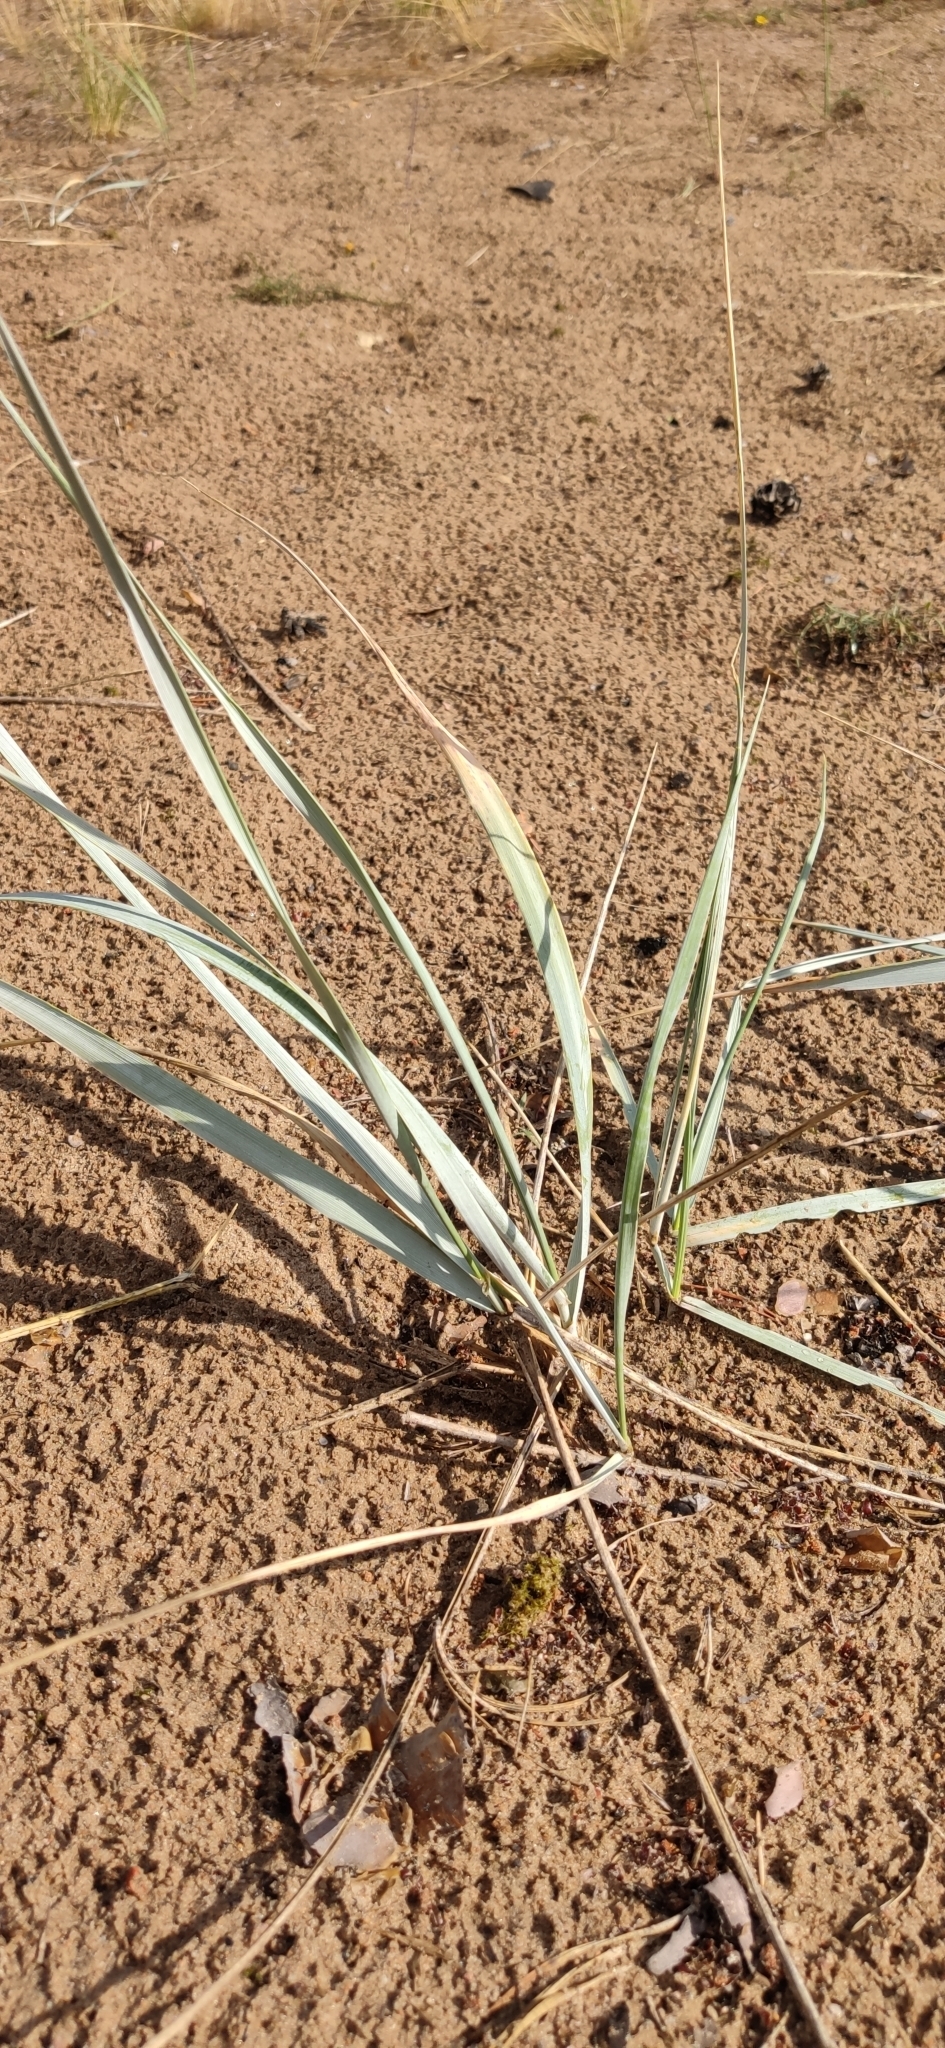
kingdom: Plantae
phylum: Tracheophyta
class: Liliopsida
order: Poales
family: Poaceae
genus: Leymus
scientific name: Leymus arenarius
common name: Lyme-grass
